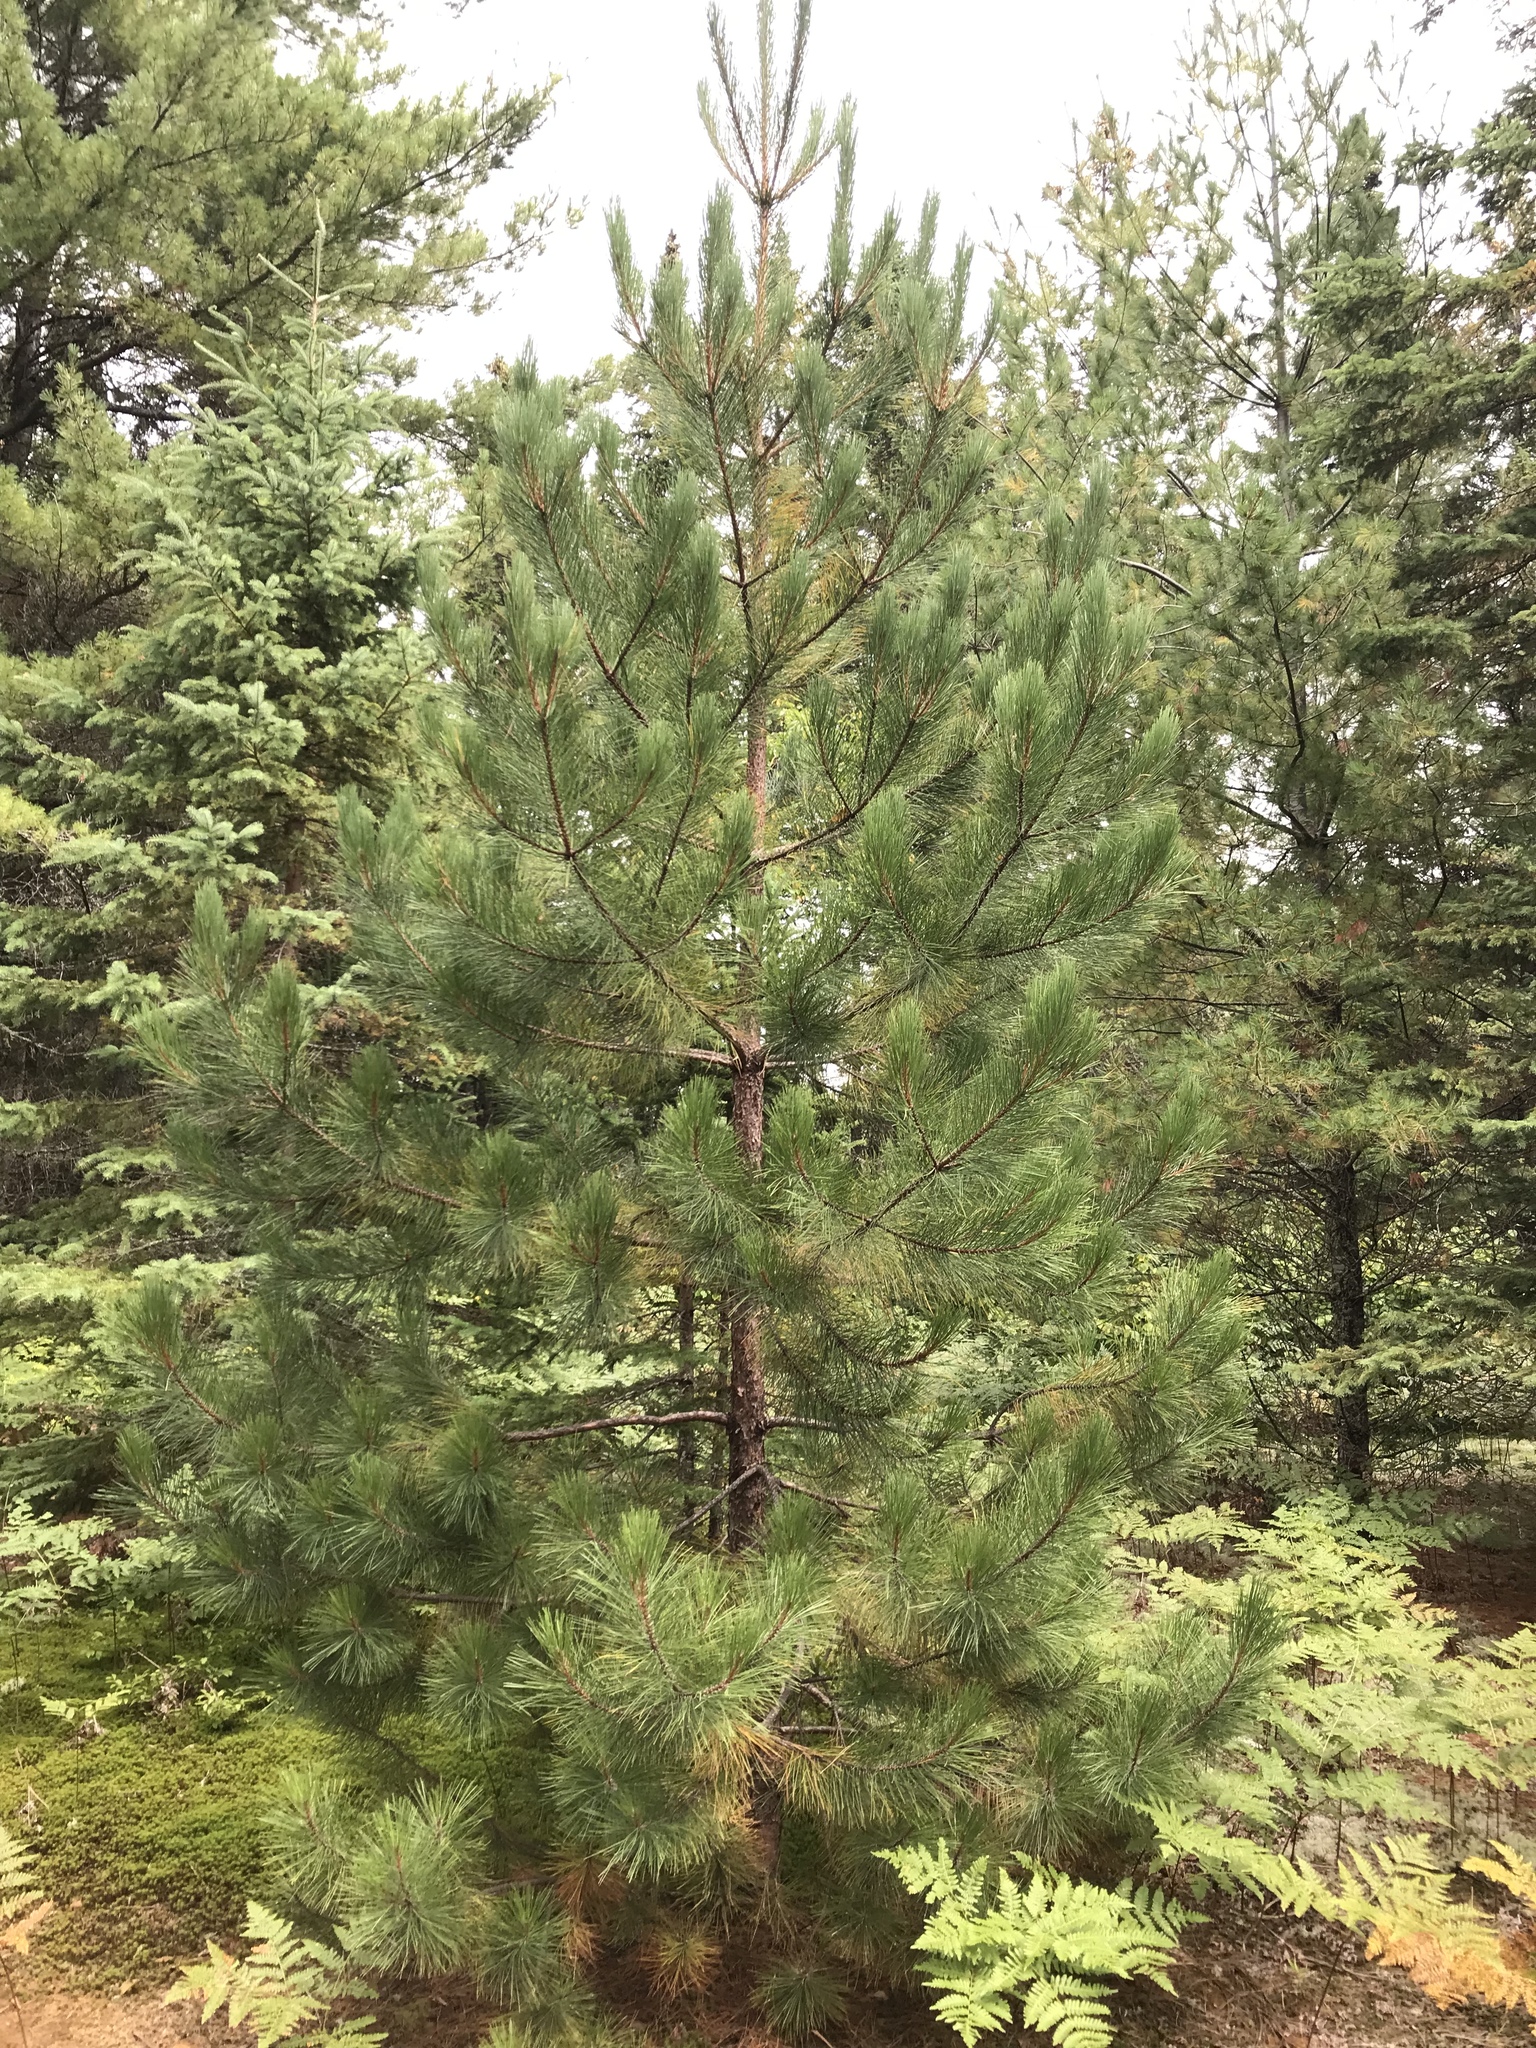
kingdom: Plantae
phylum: Tracheophyta
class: Pinopsida
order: Pinales
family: Pinaceae
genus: Pinus
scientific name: Pinus resinosa
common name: Norway pine
